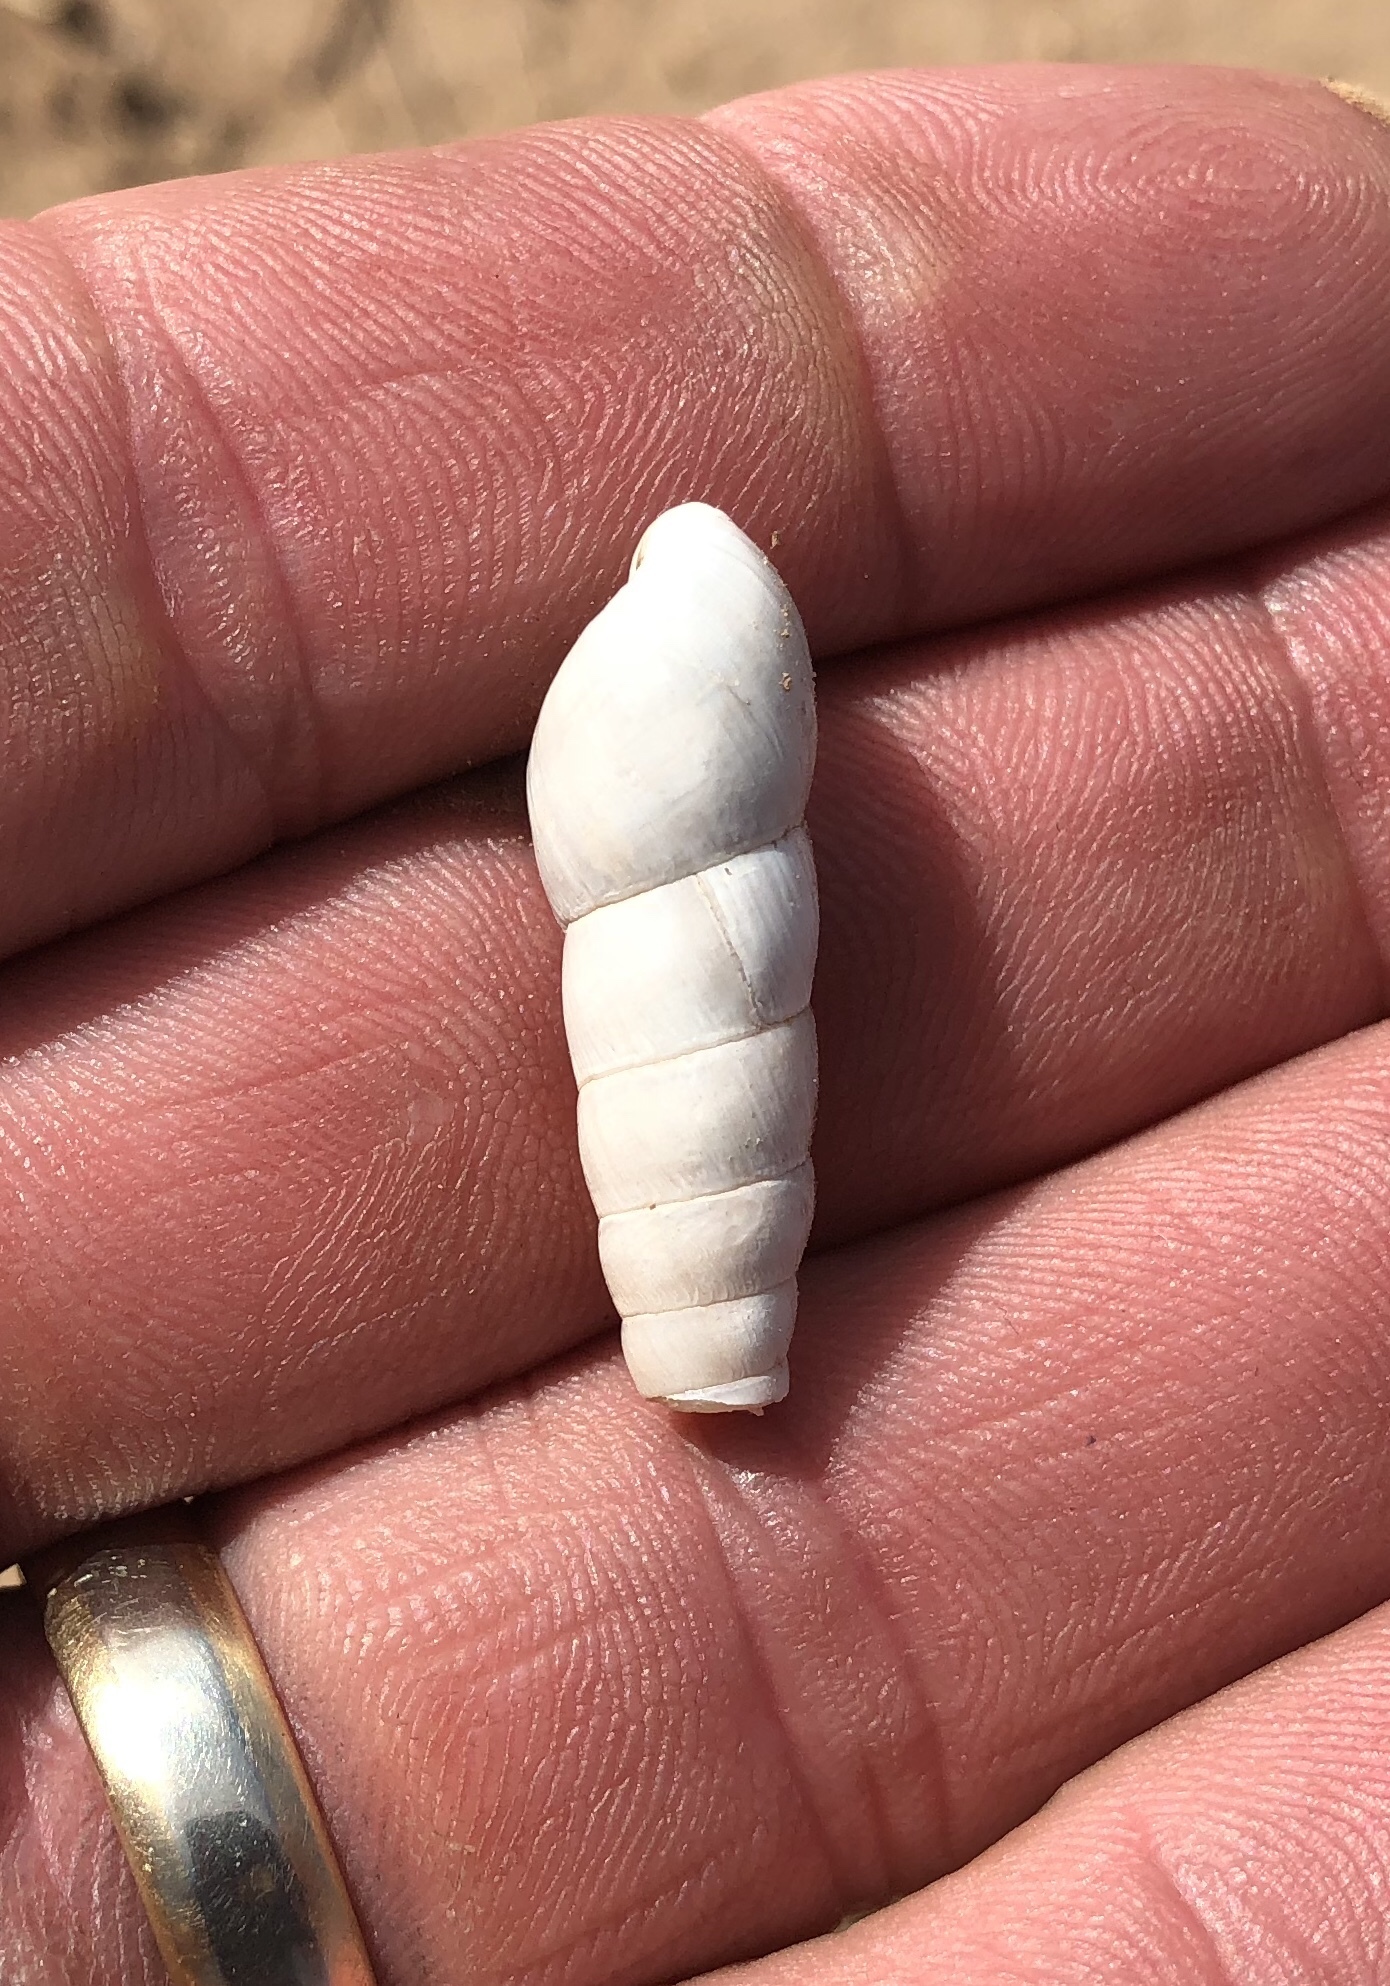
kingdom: Animalia
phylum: Mollusca
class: Gastropoda
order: Stylommatophora
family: Achatinidae
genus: Rumina
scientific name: Rumina decollata
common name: Decollate snail
